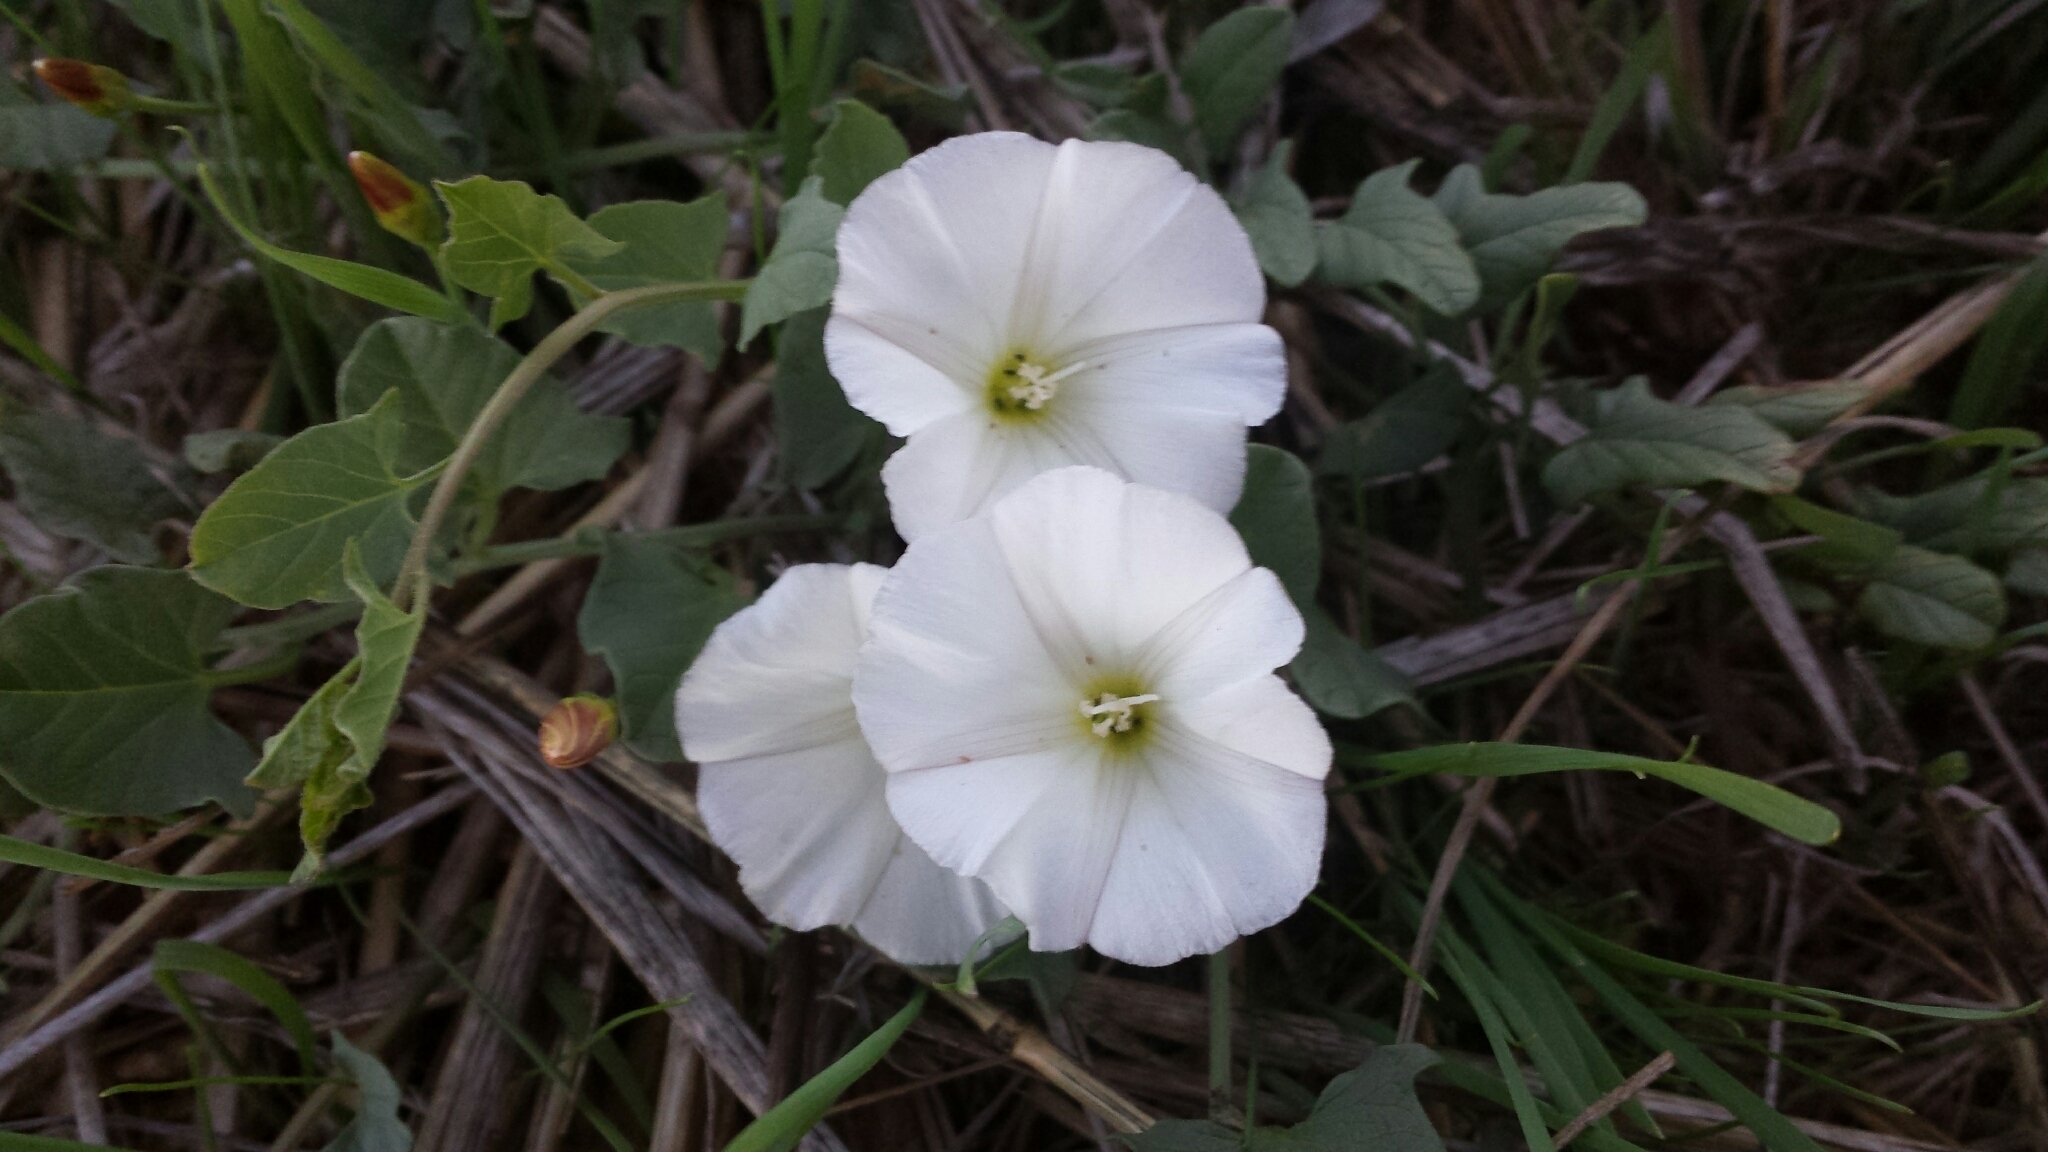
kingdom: Plantae
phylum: Tracheophyta
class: Magnoliopsida
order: Solanales
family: Convolvulaceae
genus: Convolvulus
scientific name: Convolvulus arvensis
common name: Field bindweed
